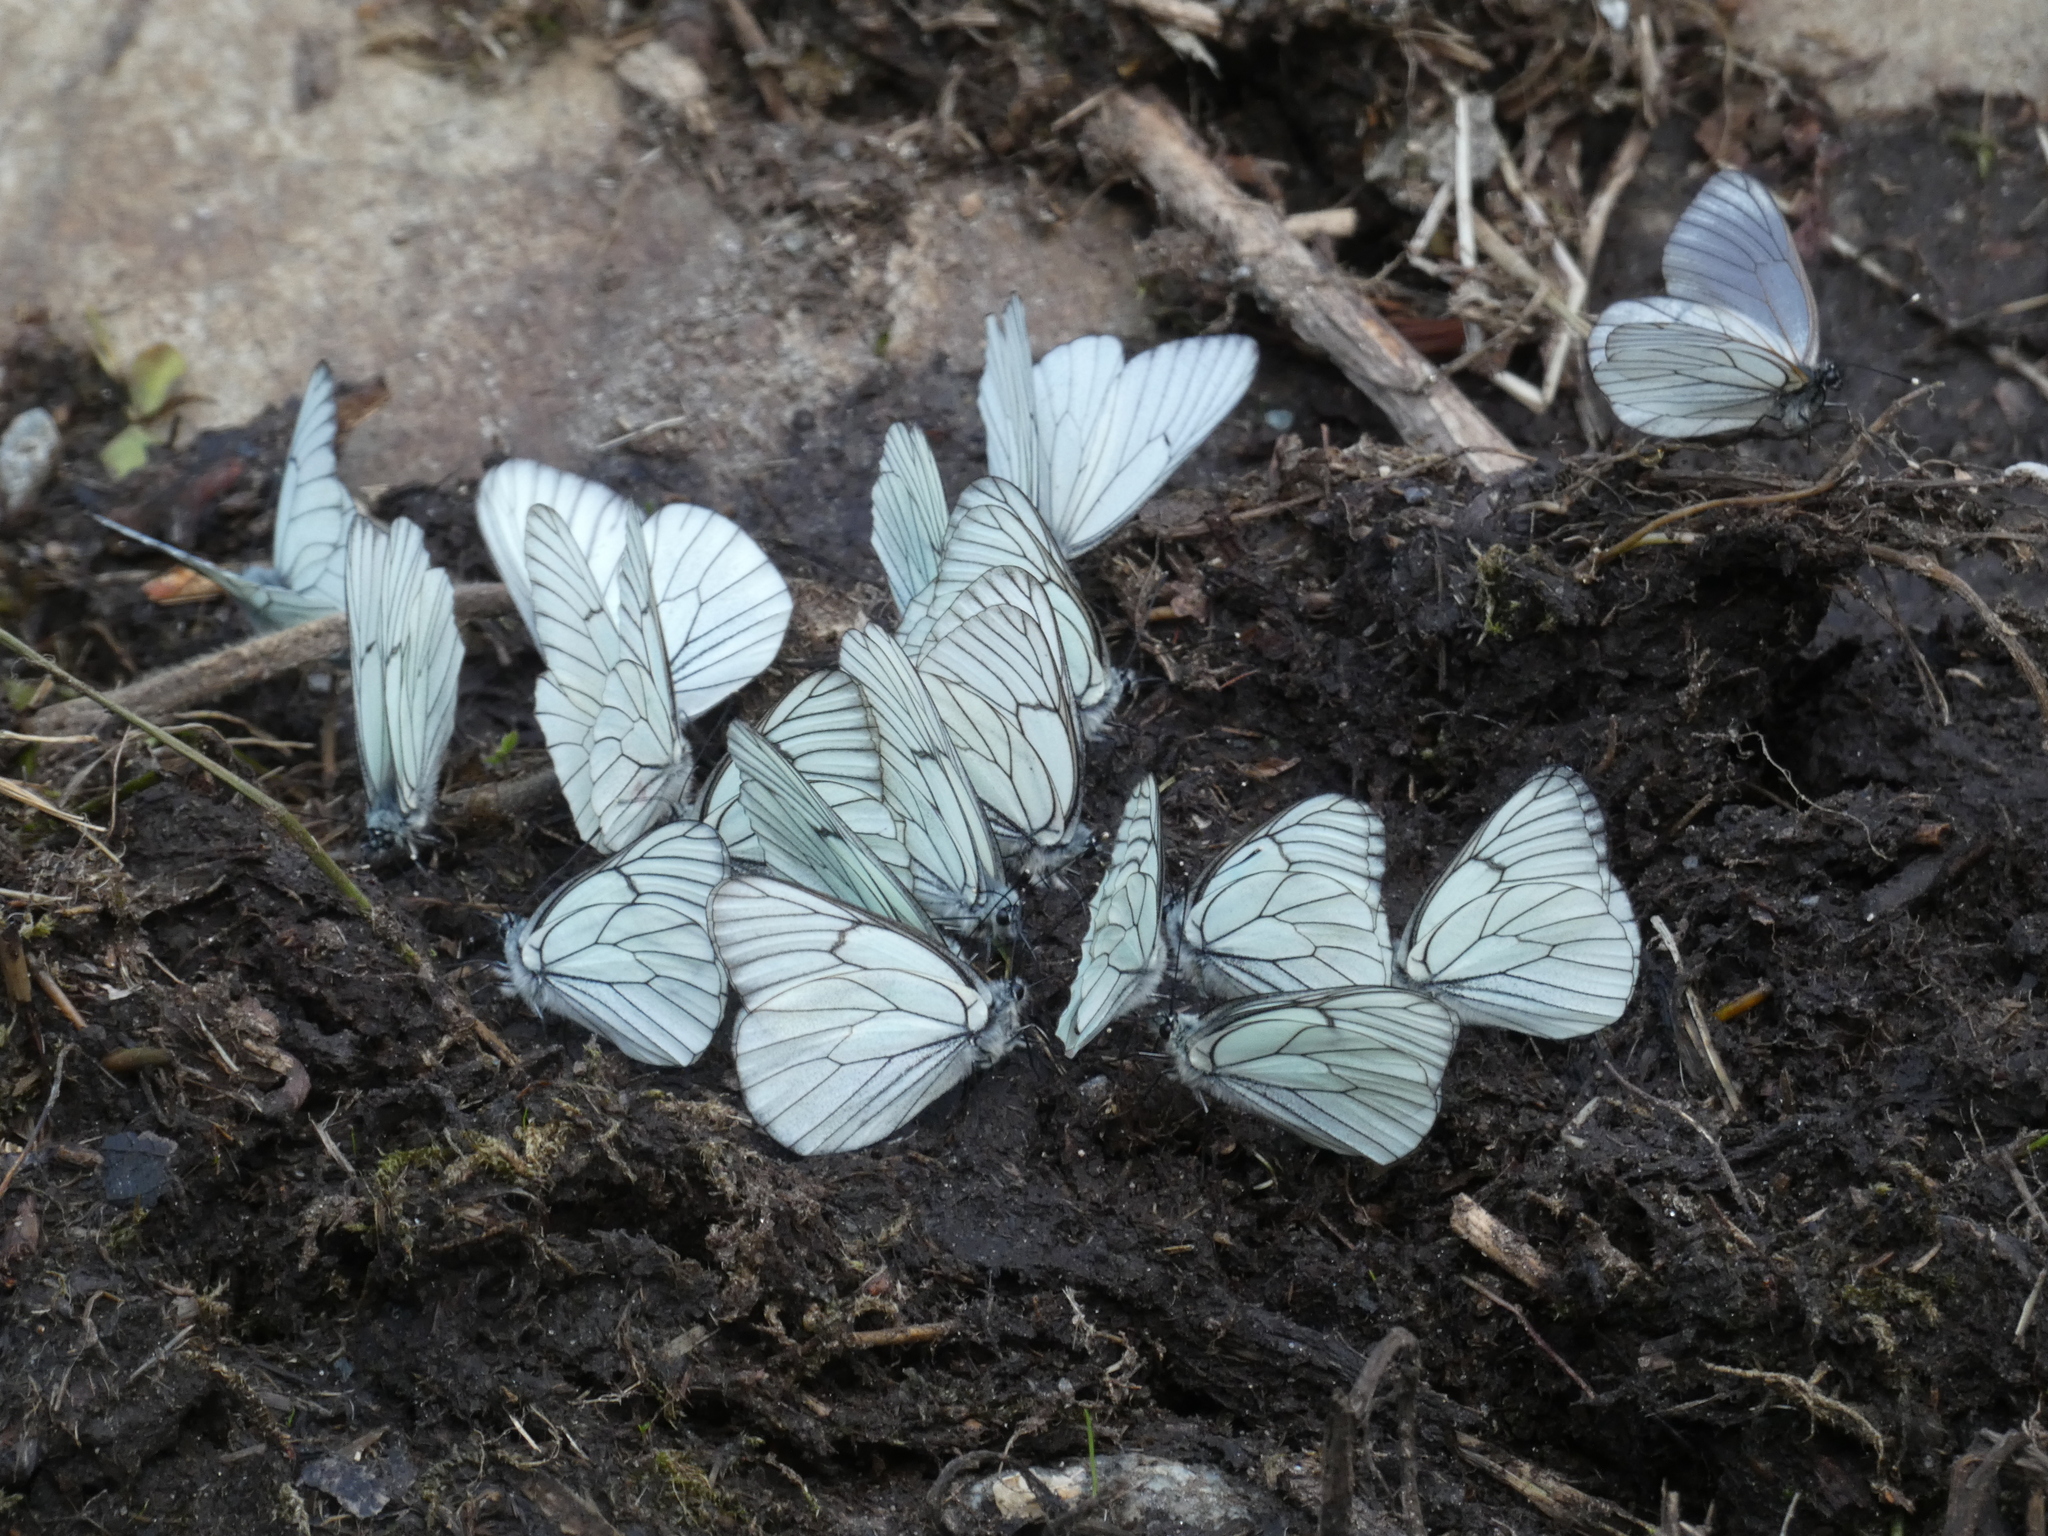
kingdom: Animalia
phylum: Arthropoda
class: Insecta
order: Lepidoptera
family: Pieridae
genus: Aporia
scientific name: Aporia crataegi
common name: Black-veined white
